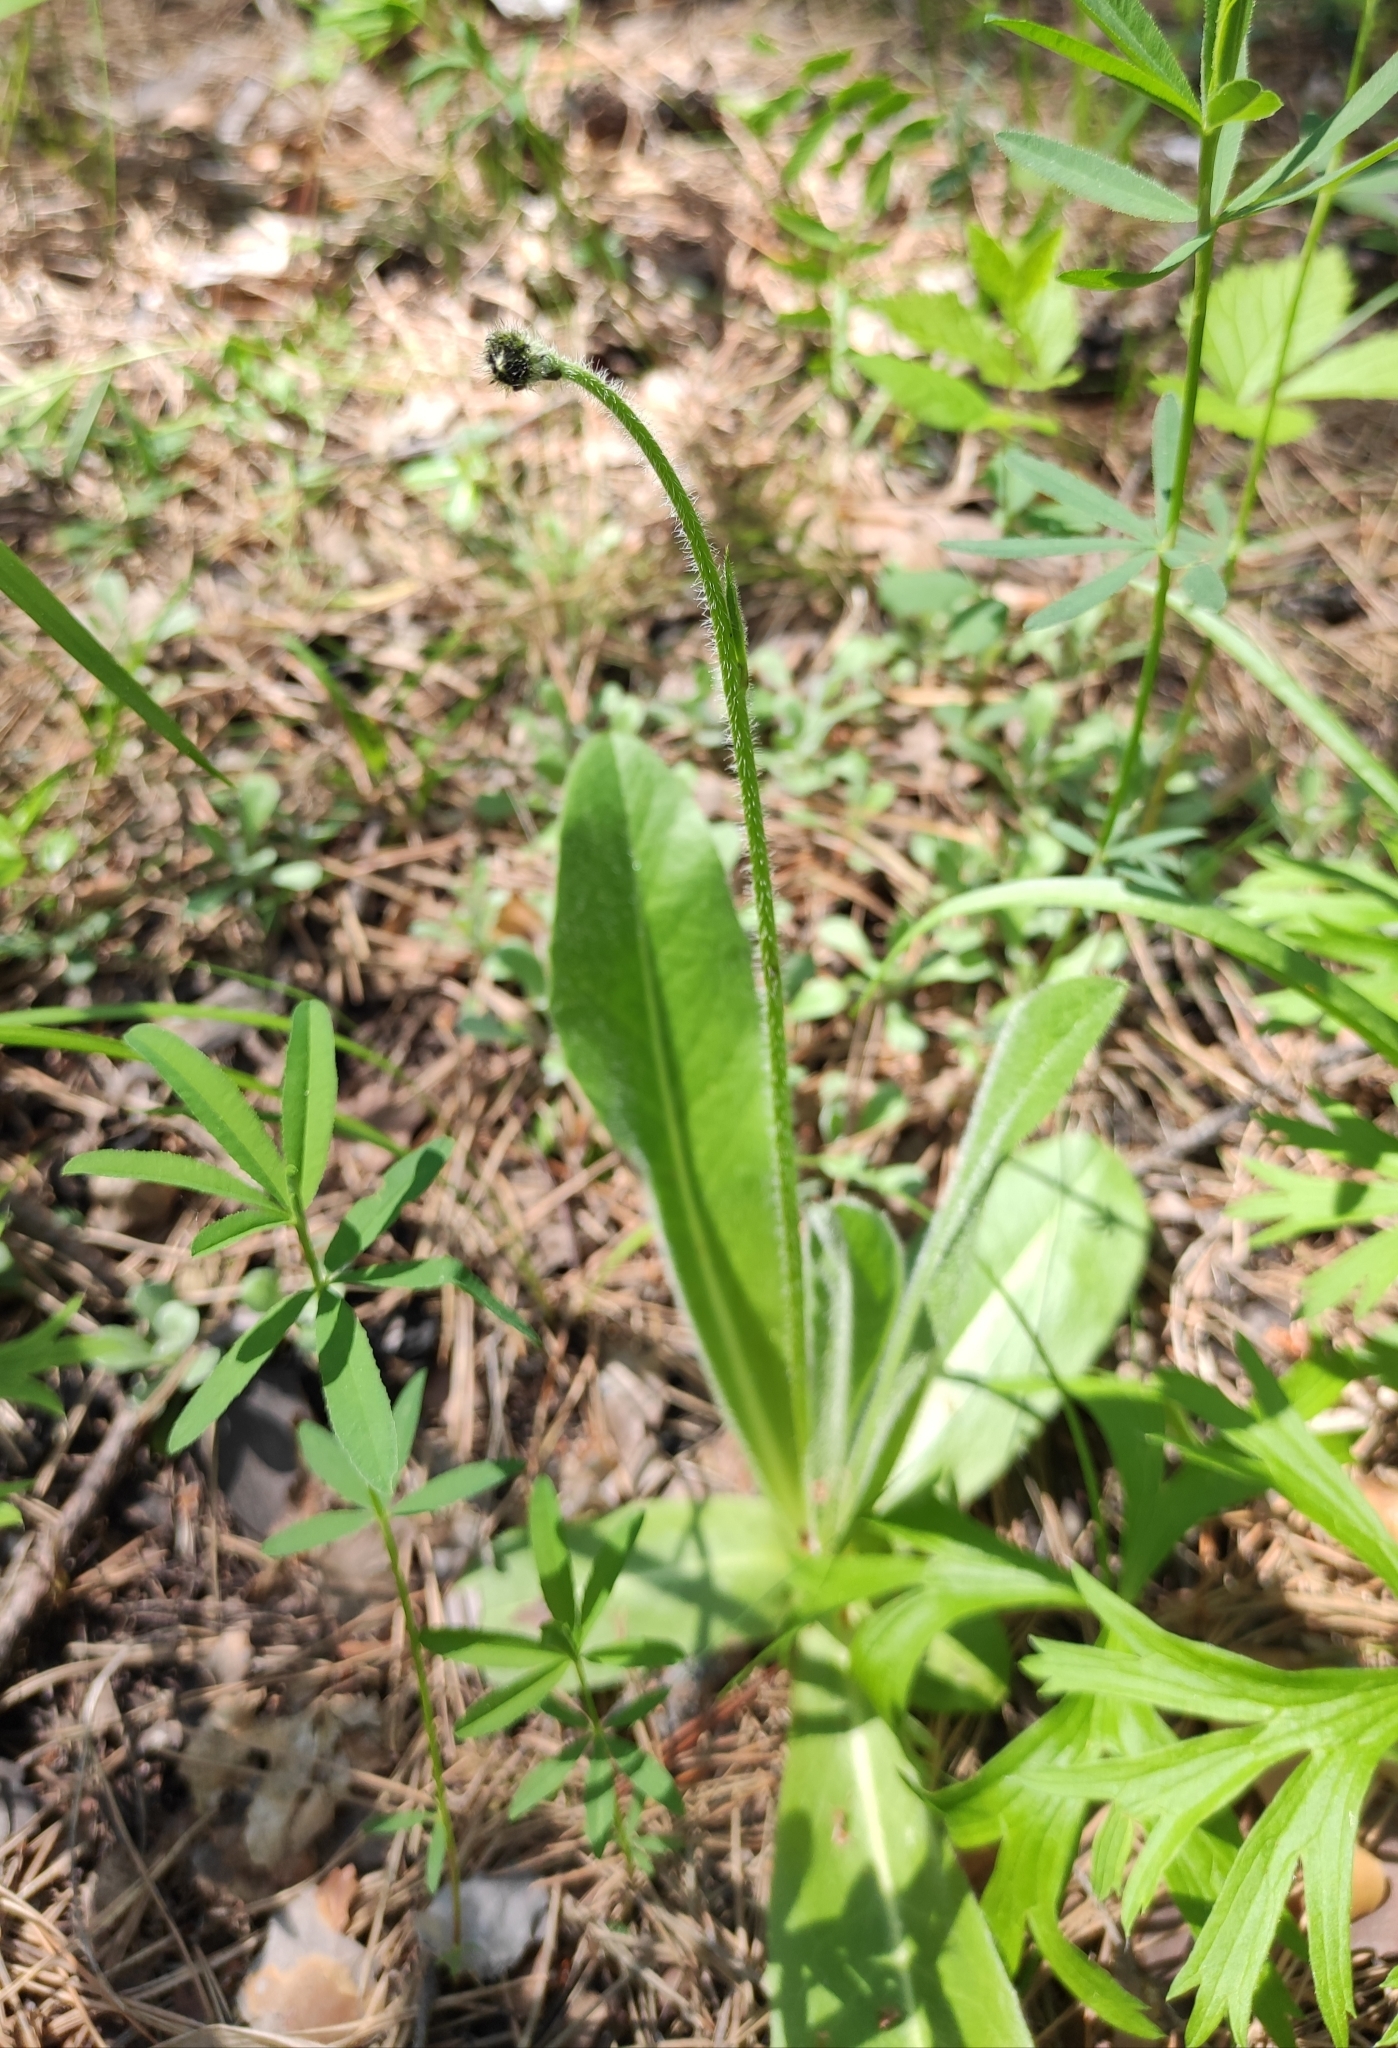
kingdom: Plantae
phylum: Tracheophyta
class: Magnoliopsida
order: Asterales
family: Asteraceae
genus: Trommsdorffia
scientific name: Trommsdorffia maculata
